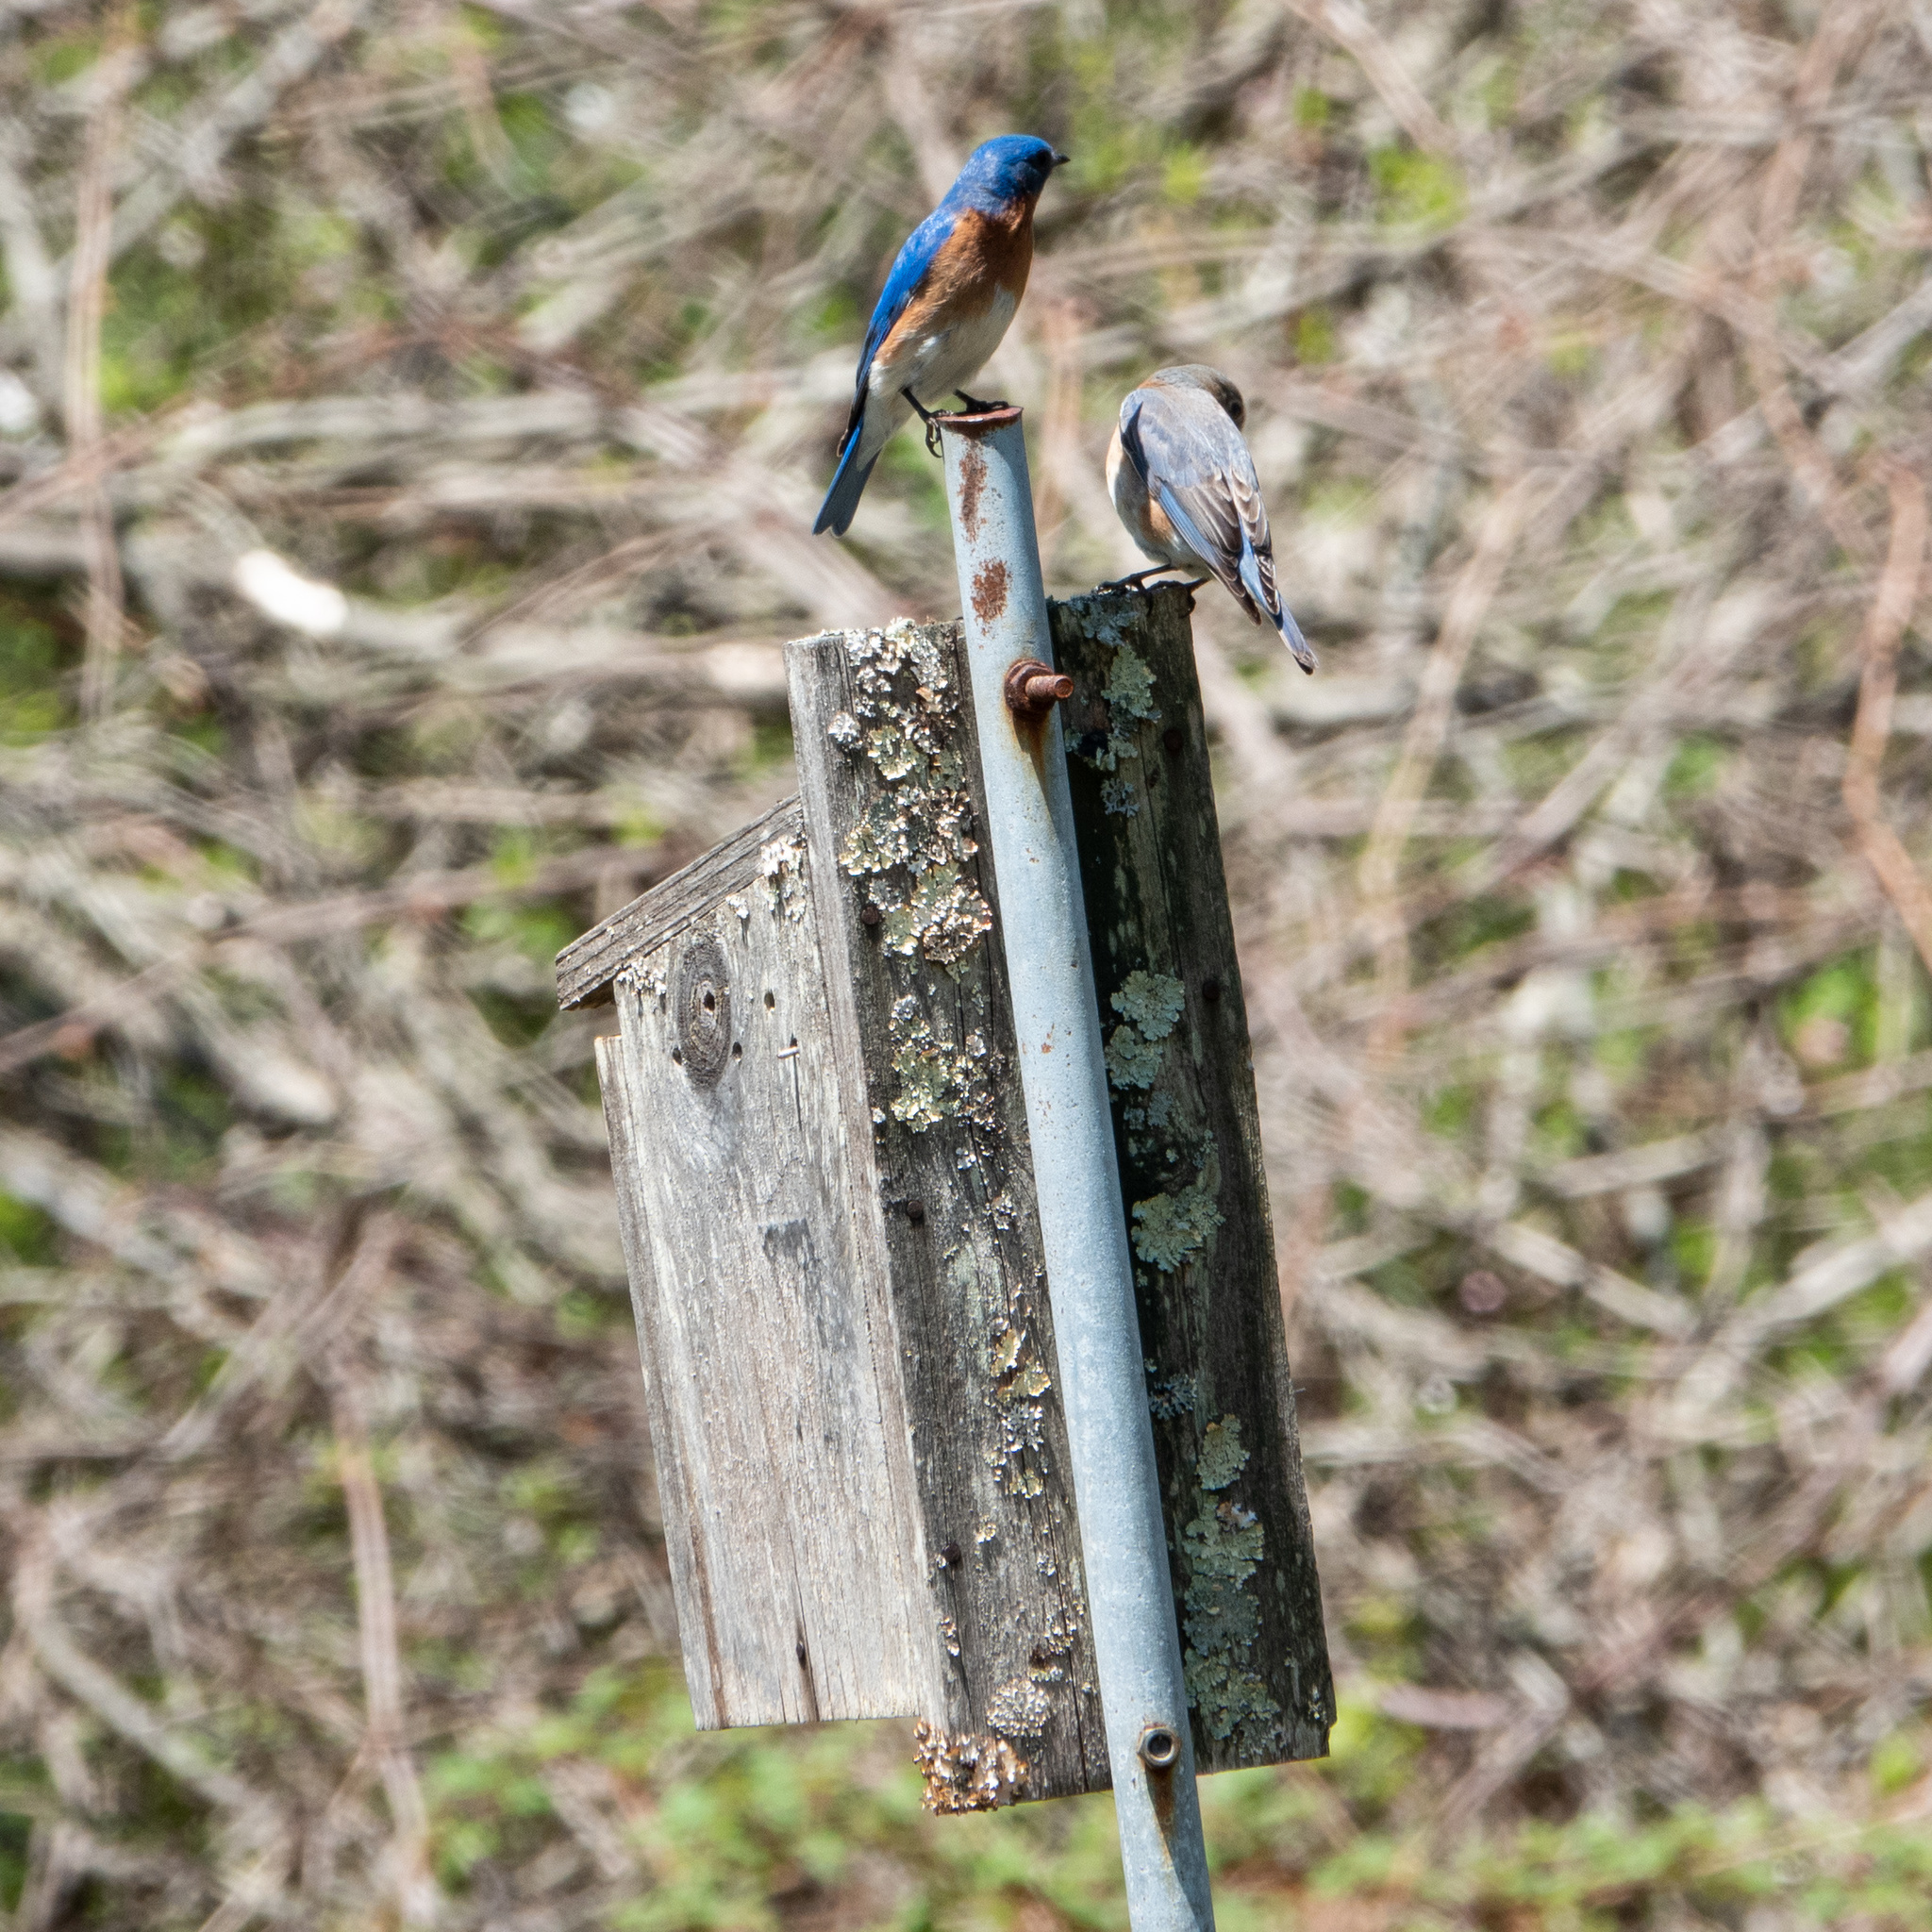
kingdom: Animalia
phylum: Chordata
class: Aves
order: Passeriformes
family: Turdidae
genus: Sialia
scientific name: Sialia sialis
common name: Eastern bluebird
